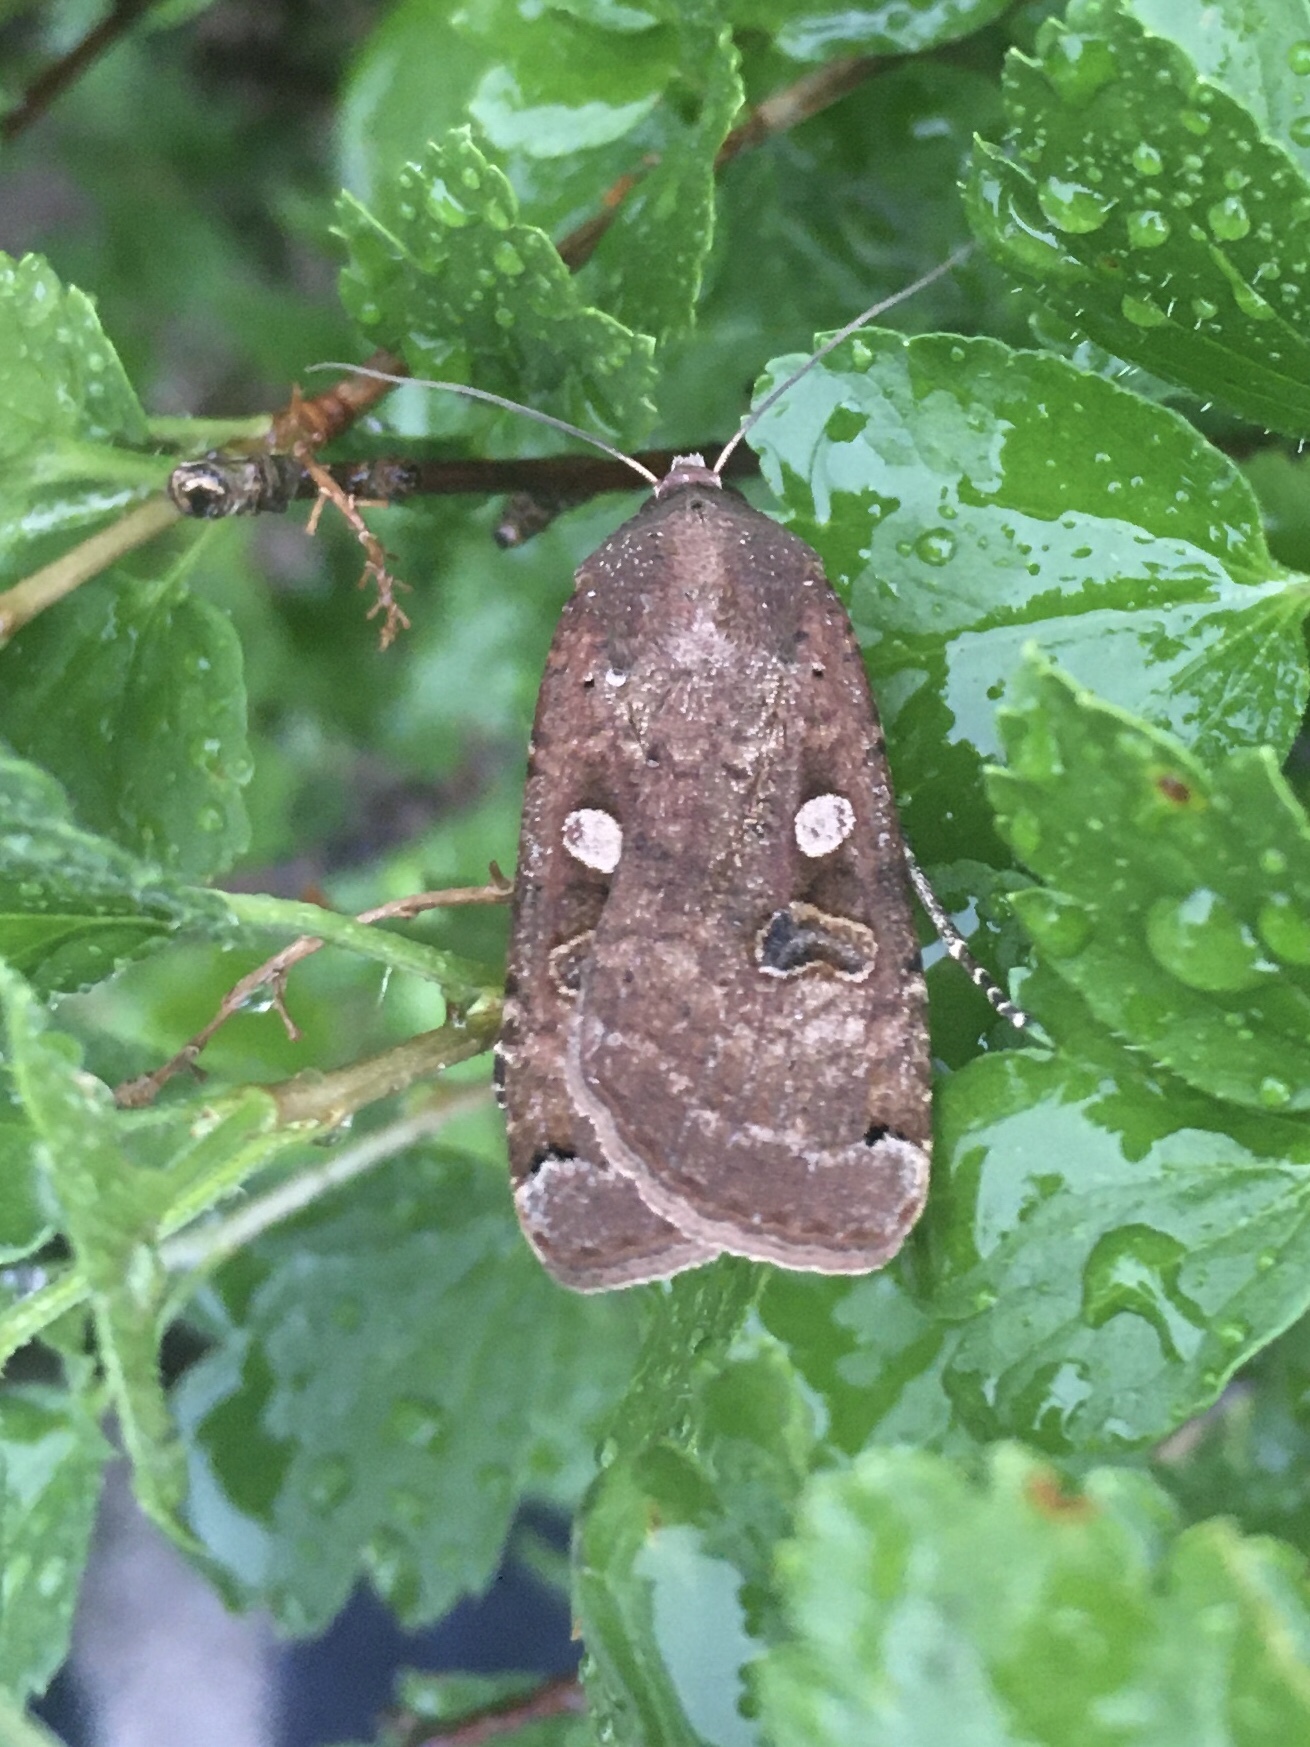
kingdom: Animalia
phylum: Arthropoda
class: Insecta
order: Lepidoptera
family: Noctuidae
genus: Noctua
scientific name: Noctua pronuba
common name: Large yellow underwing
